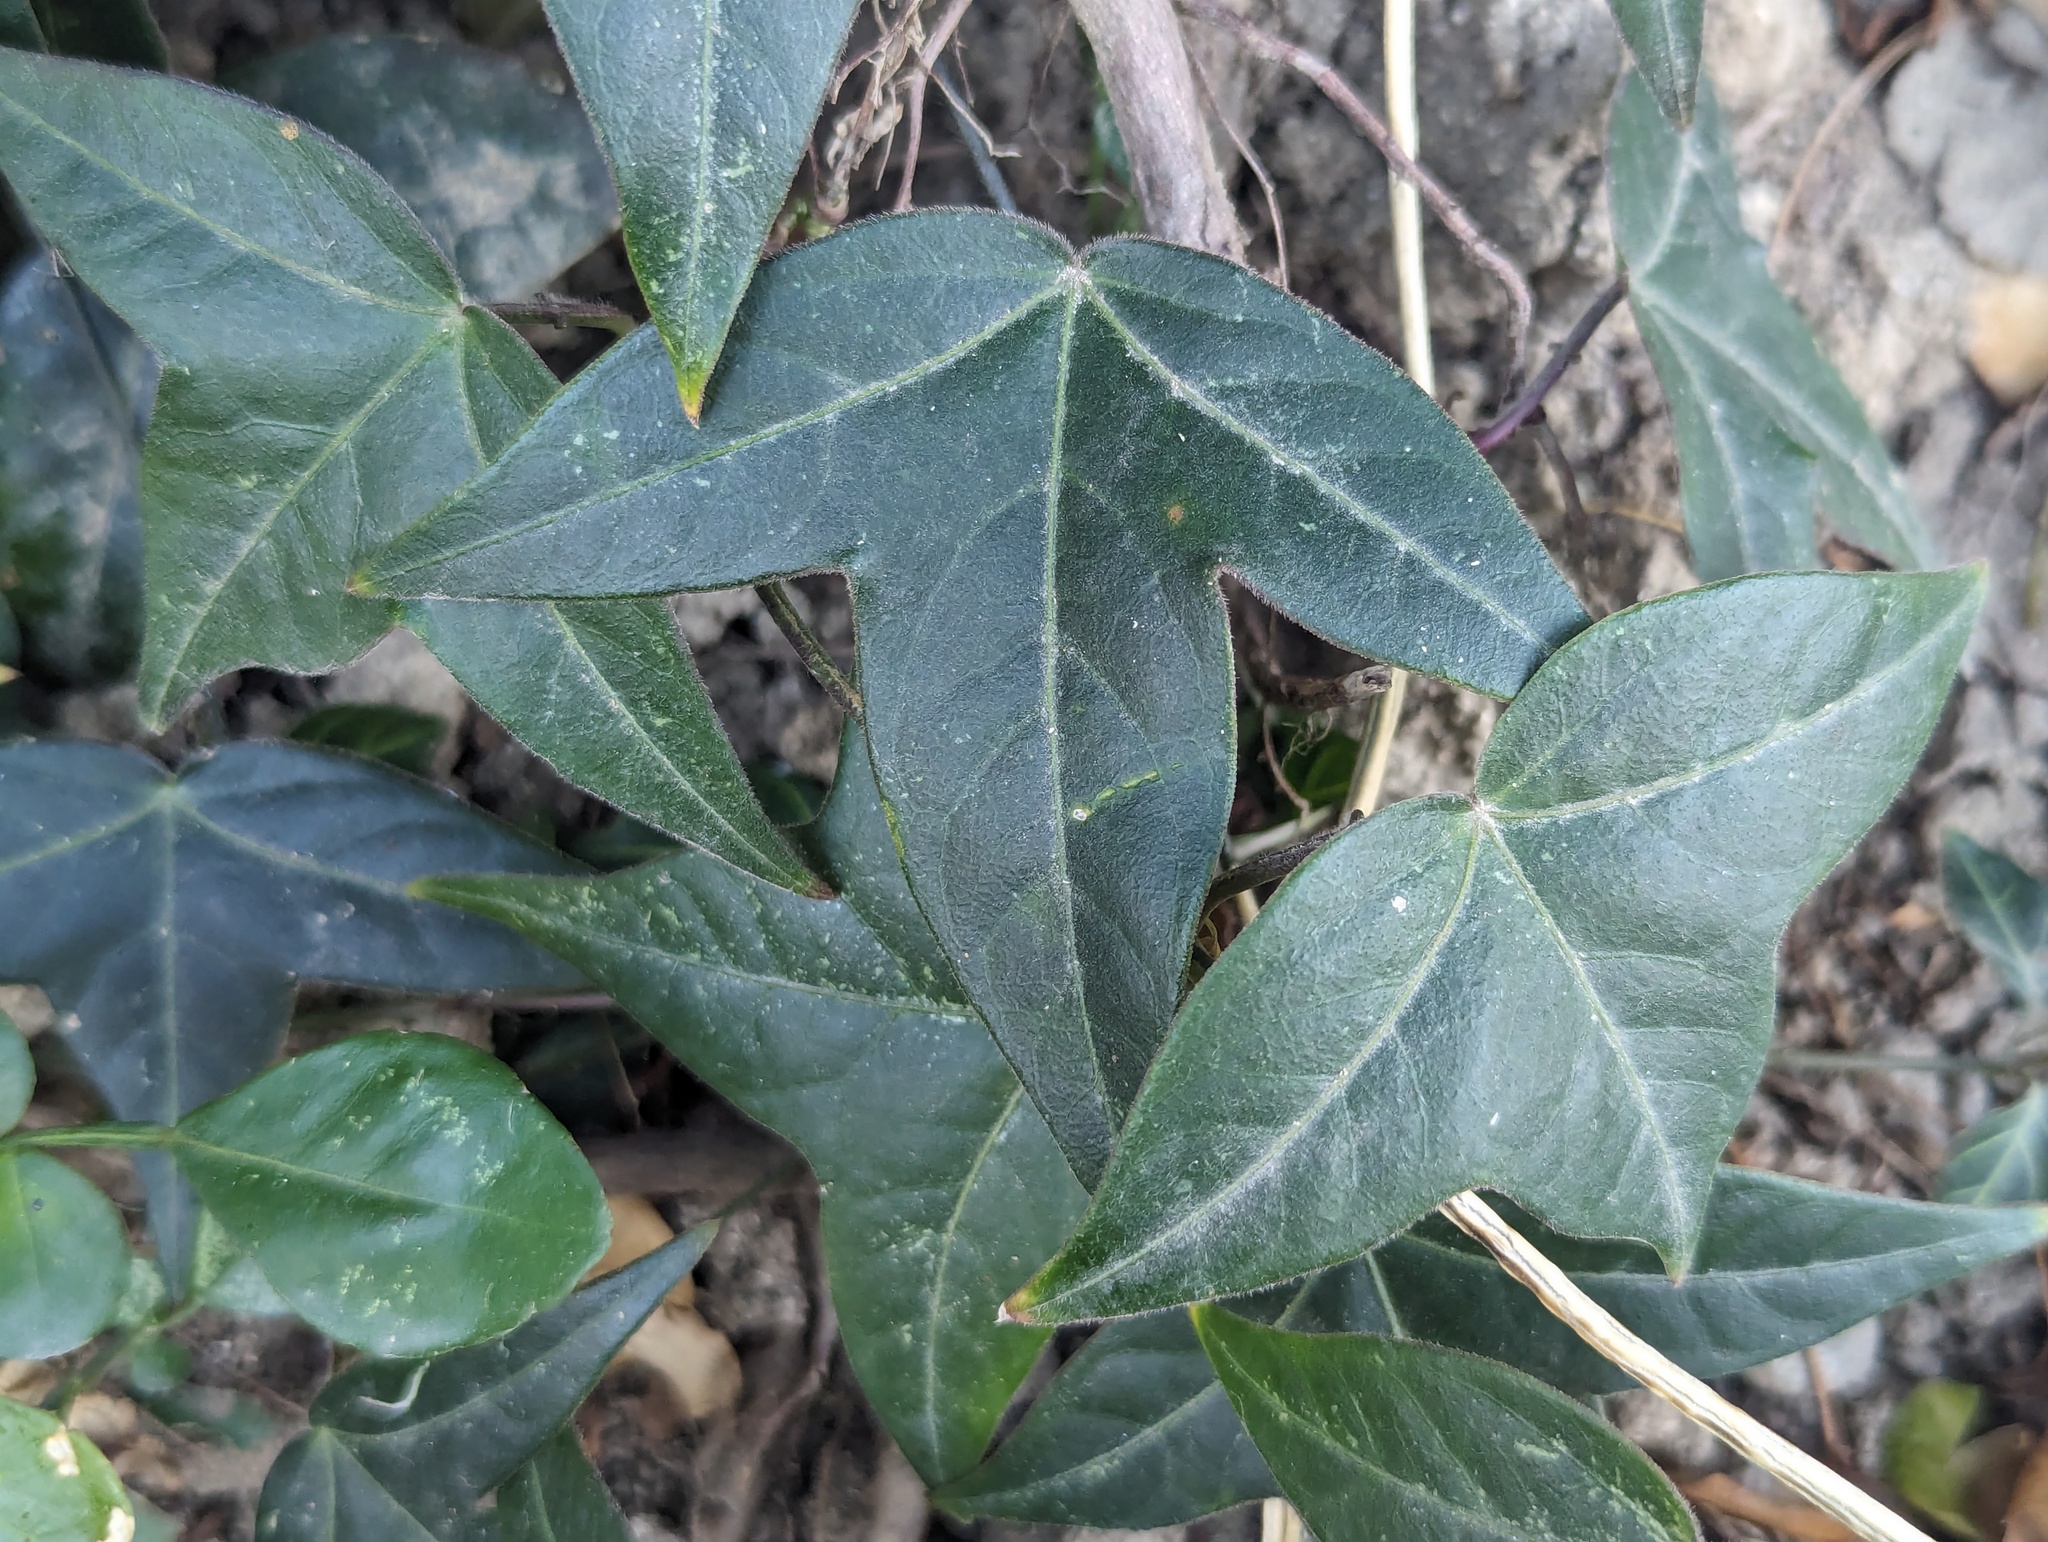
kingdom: Plantae
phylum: Tracheophyta
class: Magnoliopsida
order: Malpighiales
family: Passifloraceae
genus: Passiflora
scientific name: Passiflora suberosa
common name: Wild passionfruit
